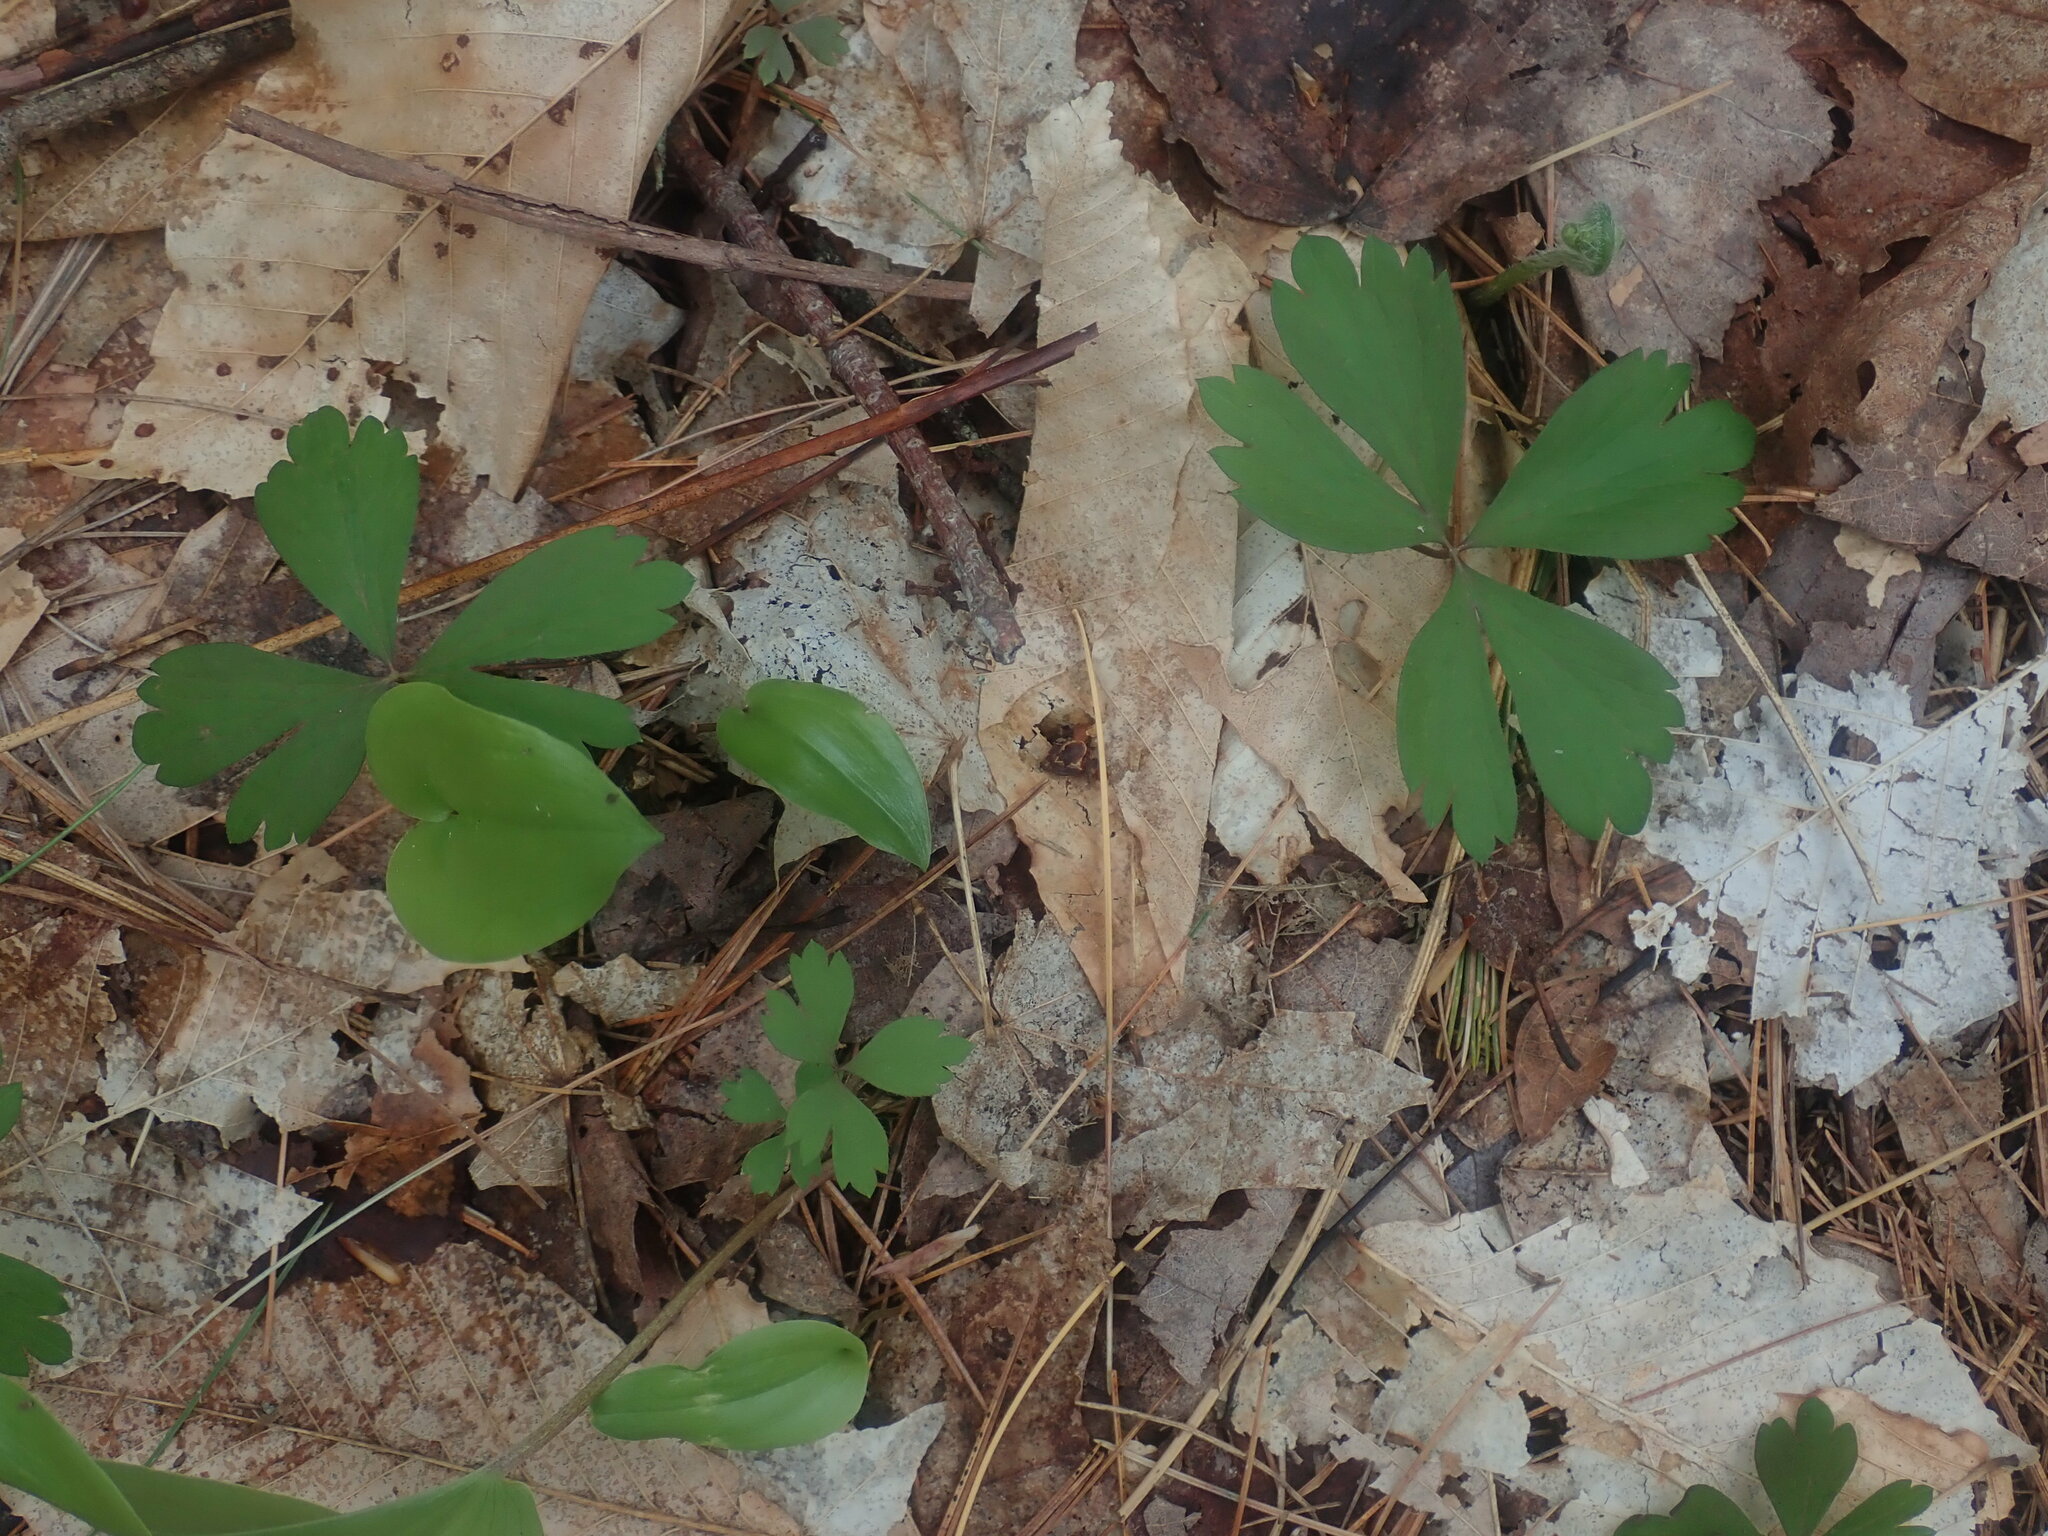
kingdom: Plantae
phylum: Tracheophyta
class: Magnoliopsida
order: Ranunculales
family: Ranunculaceae
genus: Anemone
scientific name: Anemone quinquefolia
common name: Wood anemone
